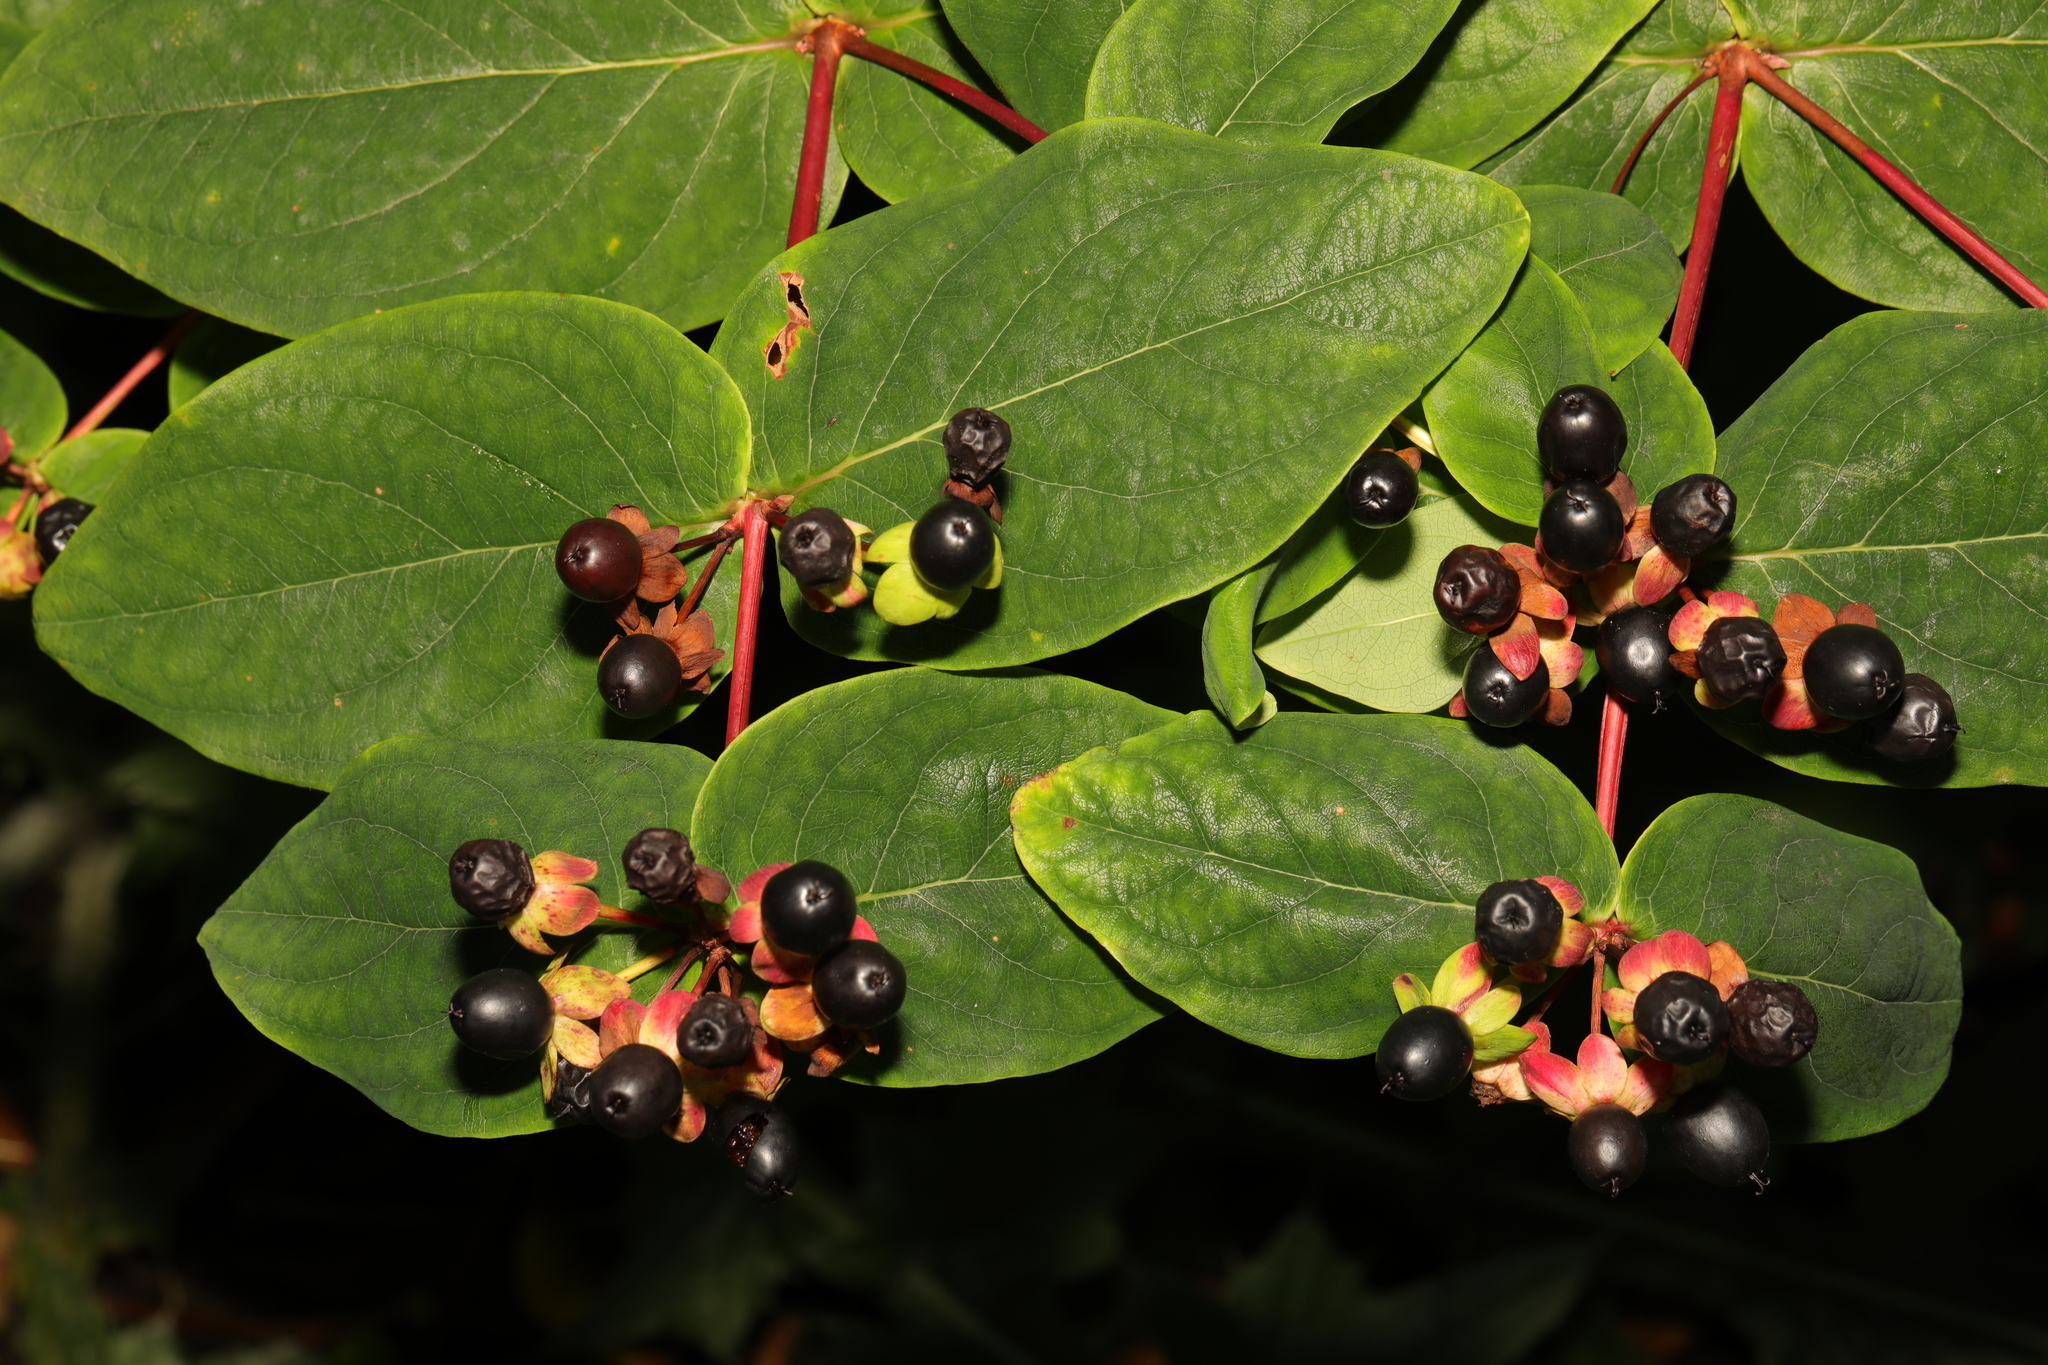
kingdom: Plantae
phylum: Tracheophyta
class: Magnoliopsida
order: Malpighiales
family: Hypericaceae
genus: Hypericum
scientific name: Hypericum androsaemum
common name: Sweet-amber
